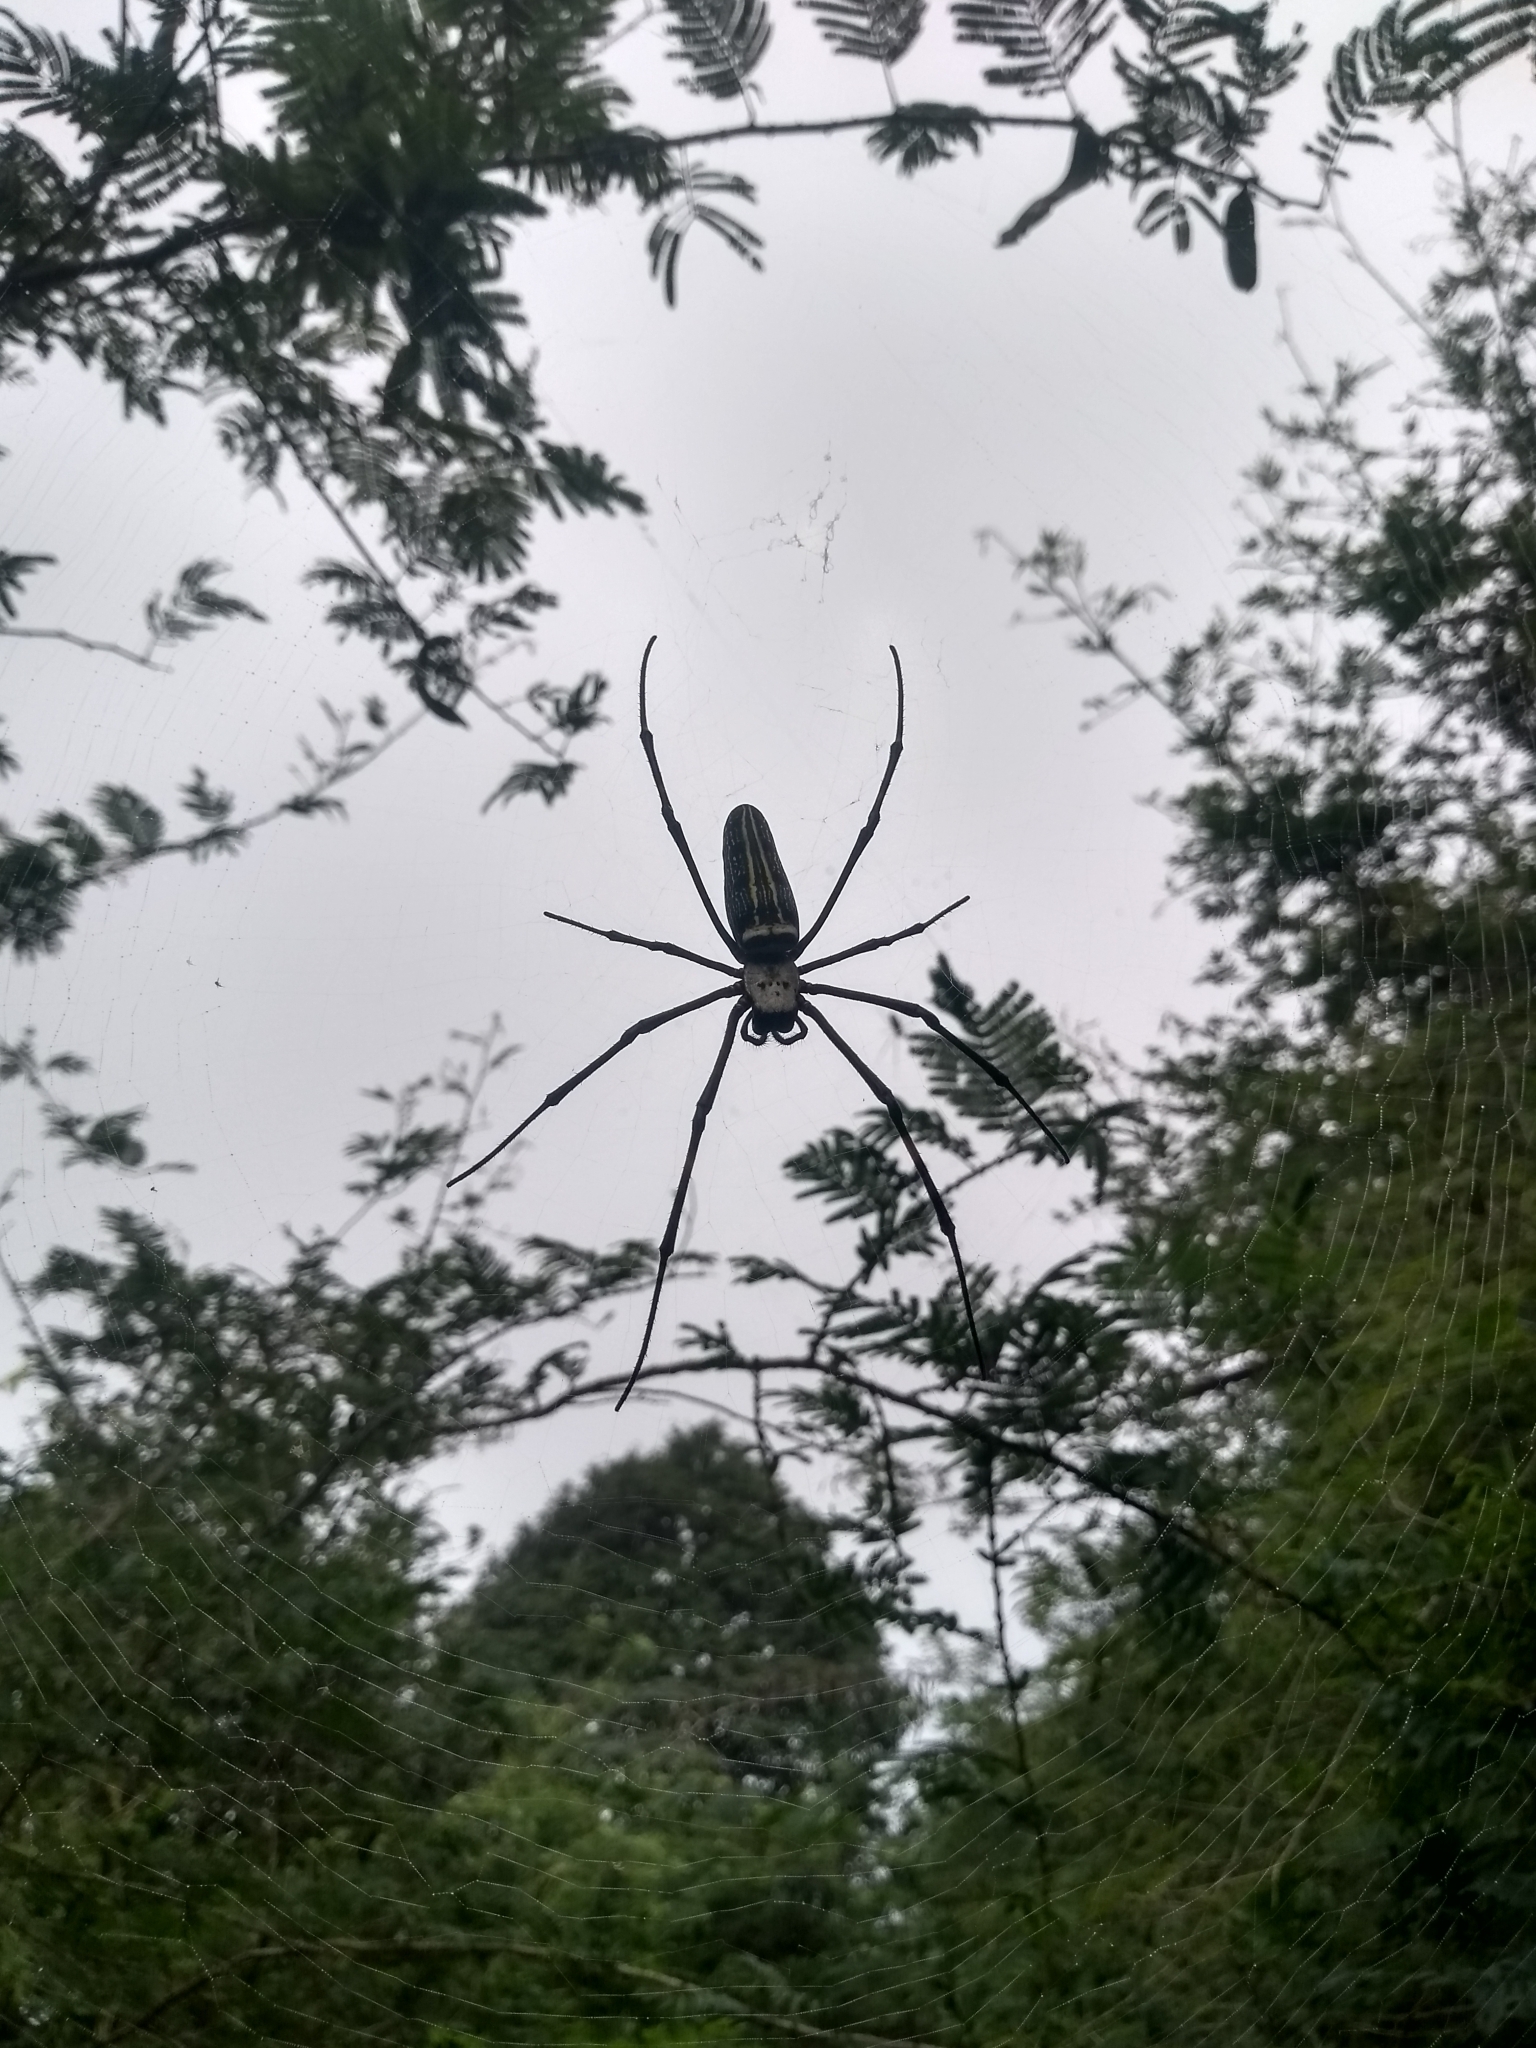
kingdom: Animalia
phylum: Arthropoda
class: Arachnida
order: Araneae
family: Araneidae
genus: Nephila
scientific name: Nephila pilipes
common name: Giant golden orb weaver
